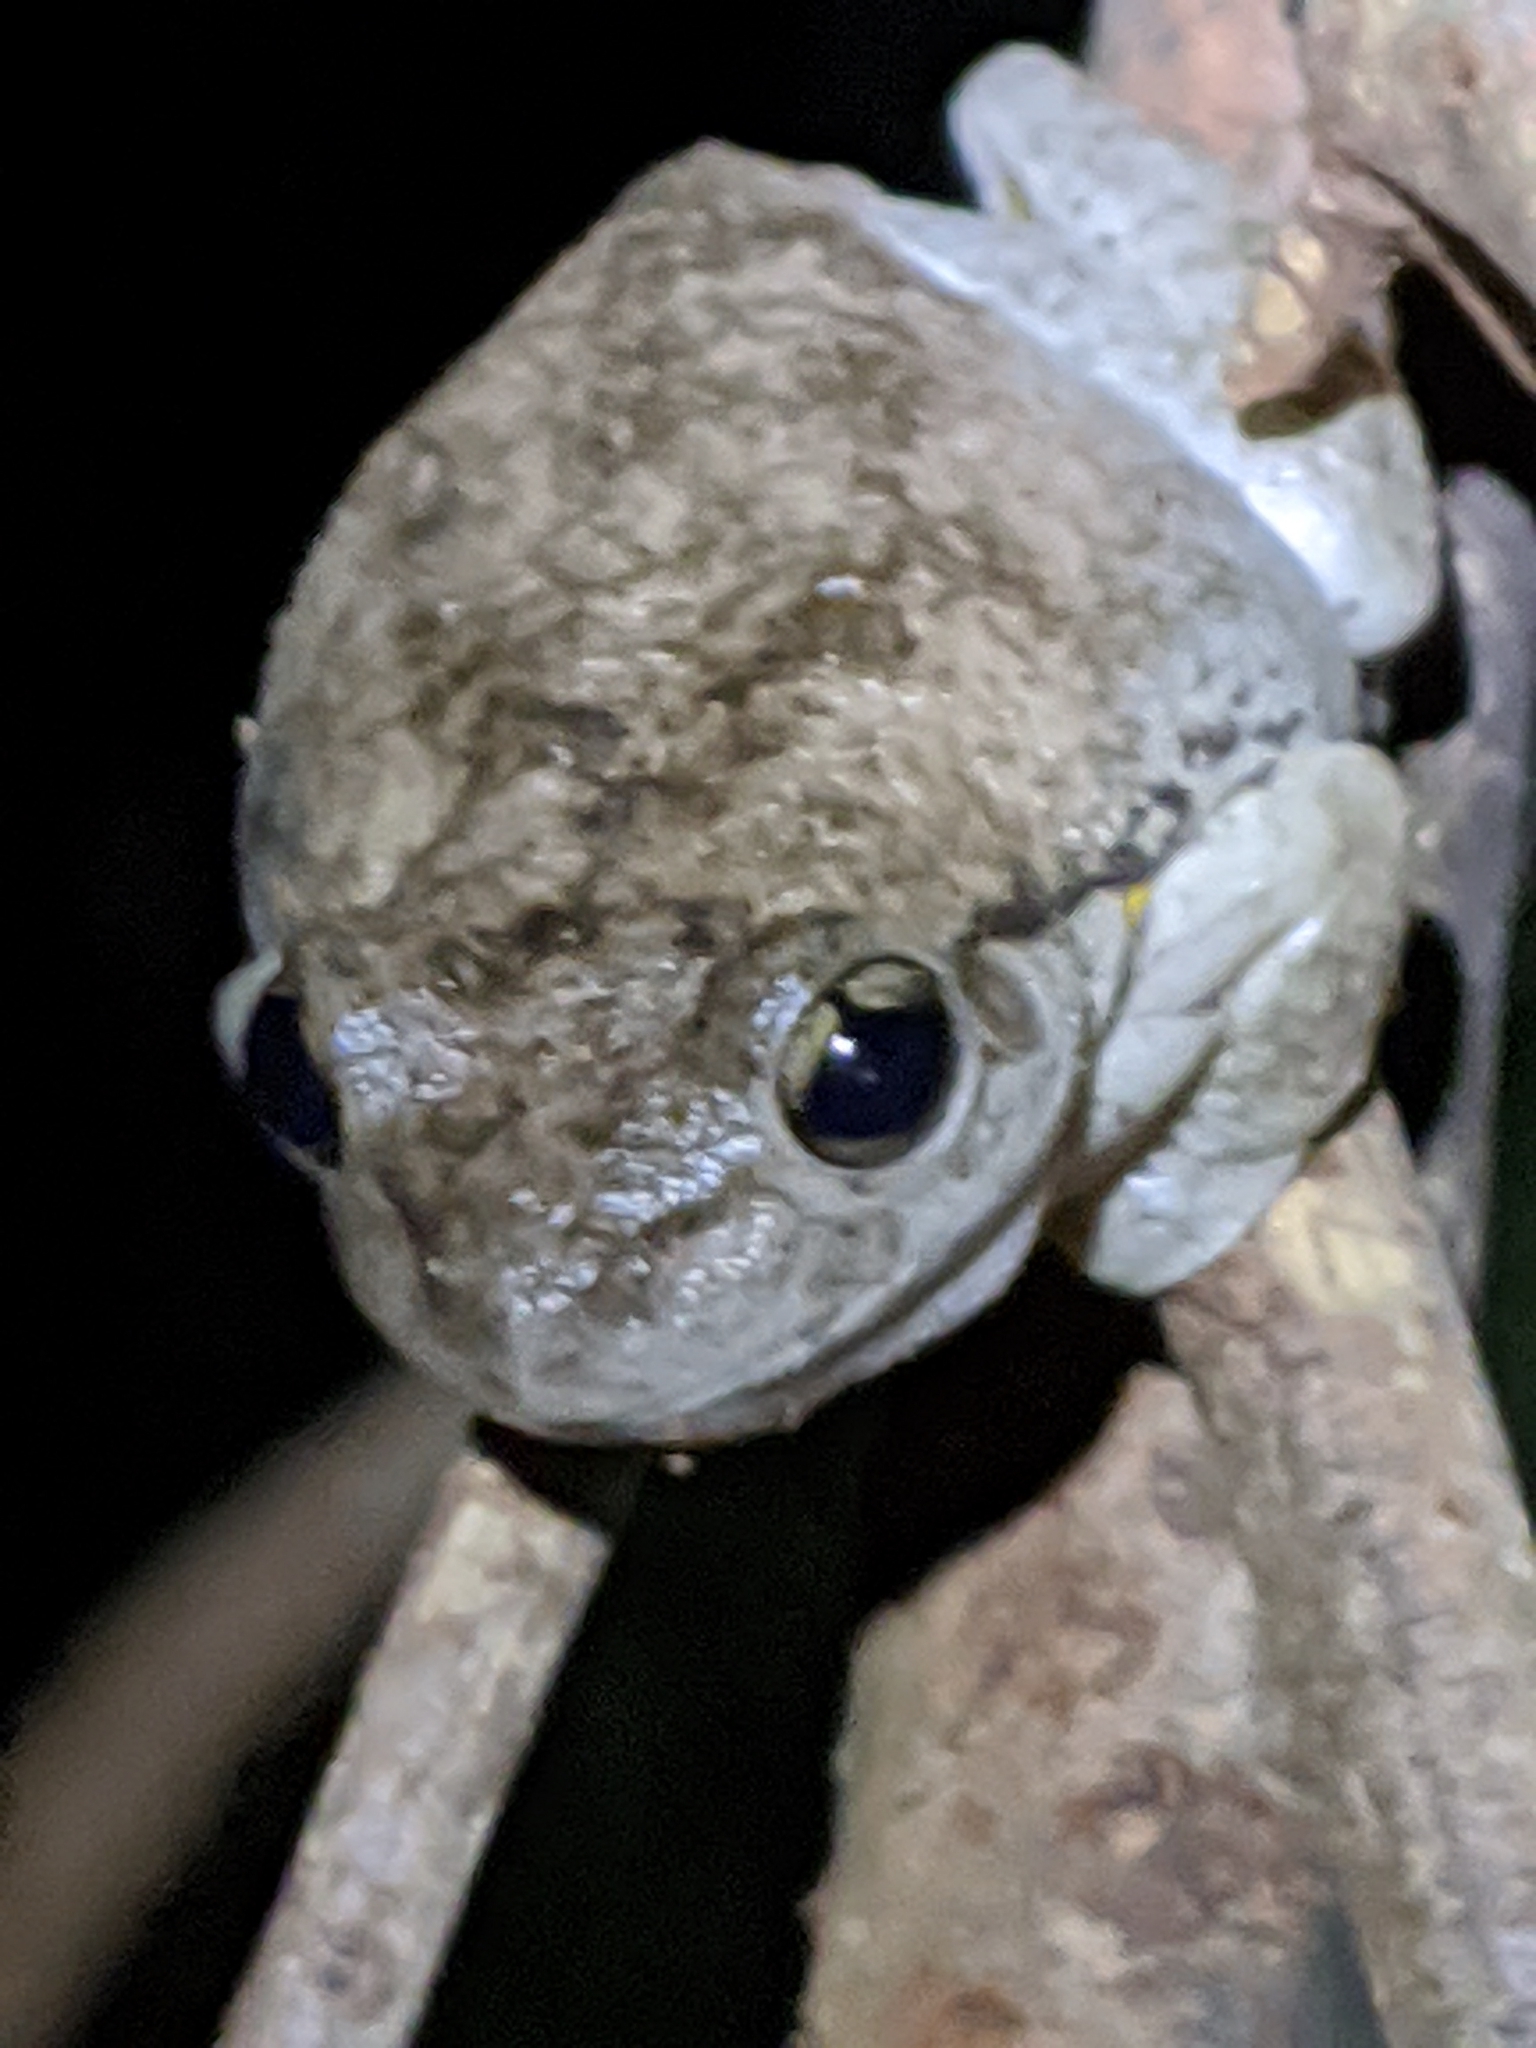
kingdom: Animalia
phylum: Chordata
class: Amphibia
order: Anura
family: Pelodryadidae
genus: Litoria
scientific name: Litoria peronii
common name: Emerald spotted treefrog
